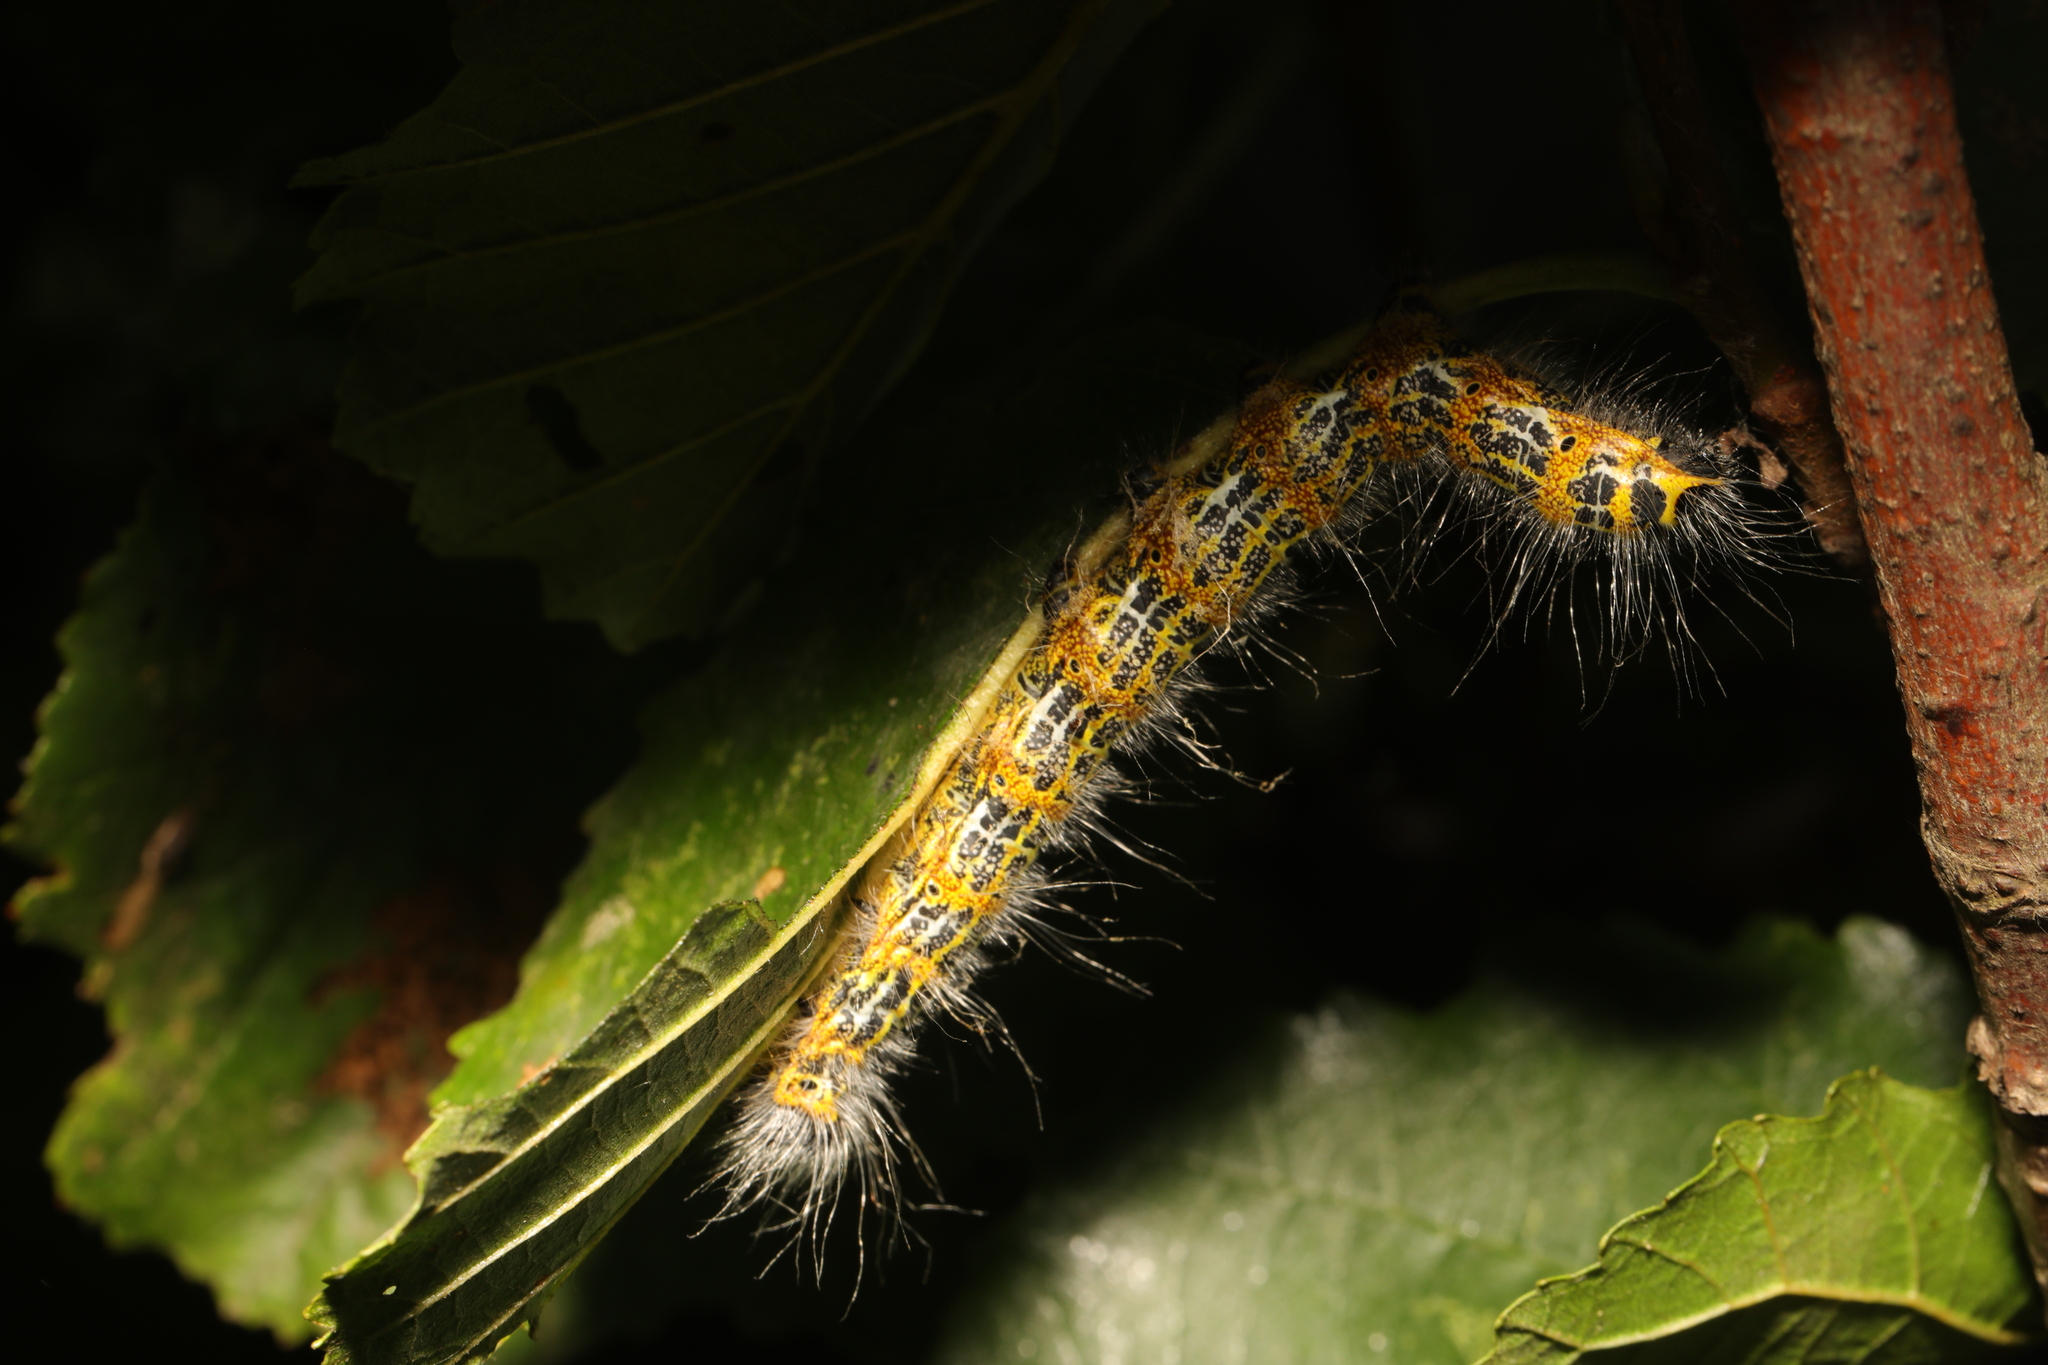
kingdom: Animalia
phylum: Arthropoda
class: Insecta
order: Lepidoptera
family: Notodontidae
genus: Phalera
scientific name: Phalera bucephala
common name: Buff-tip
